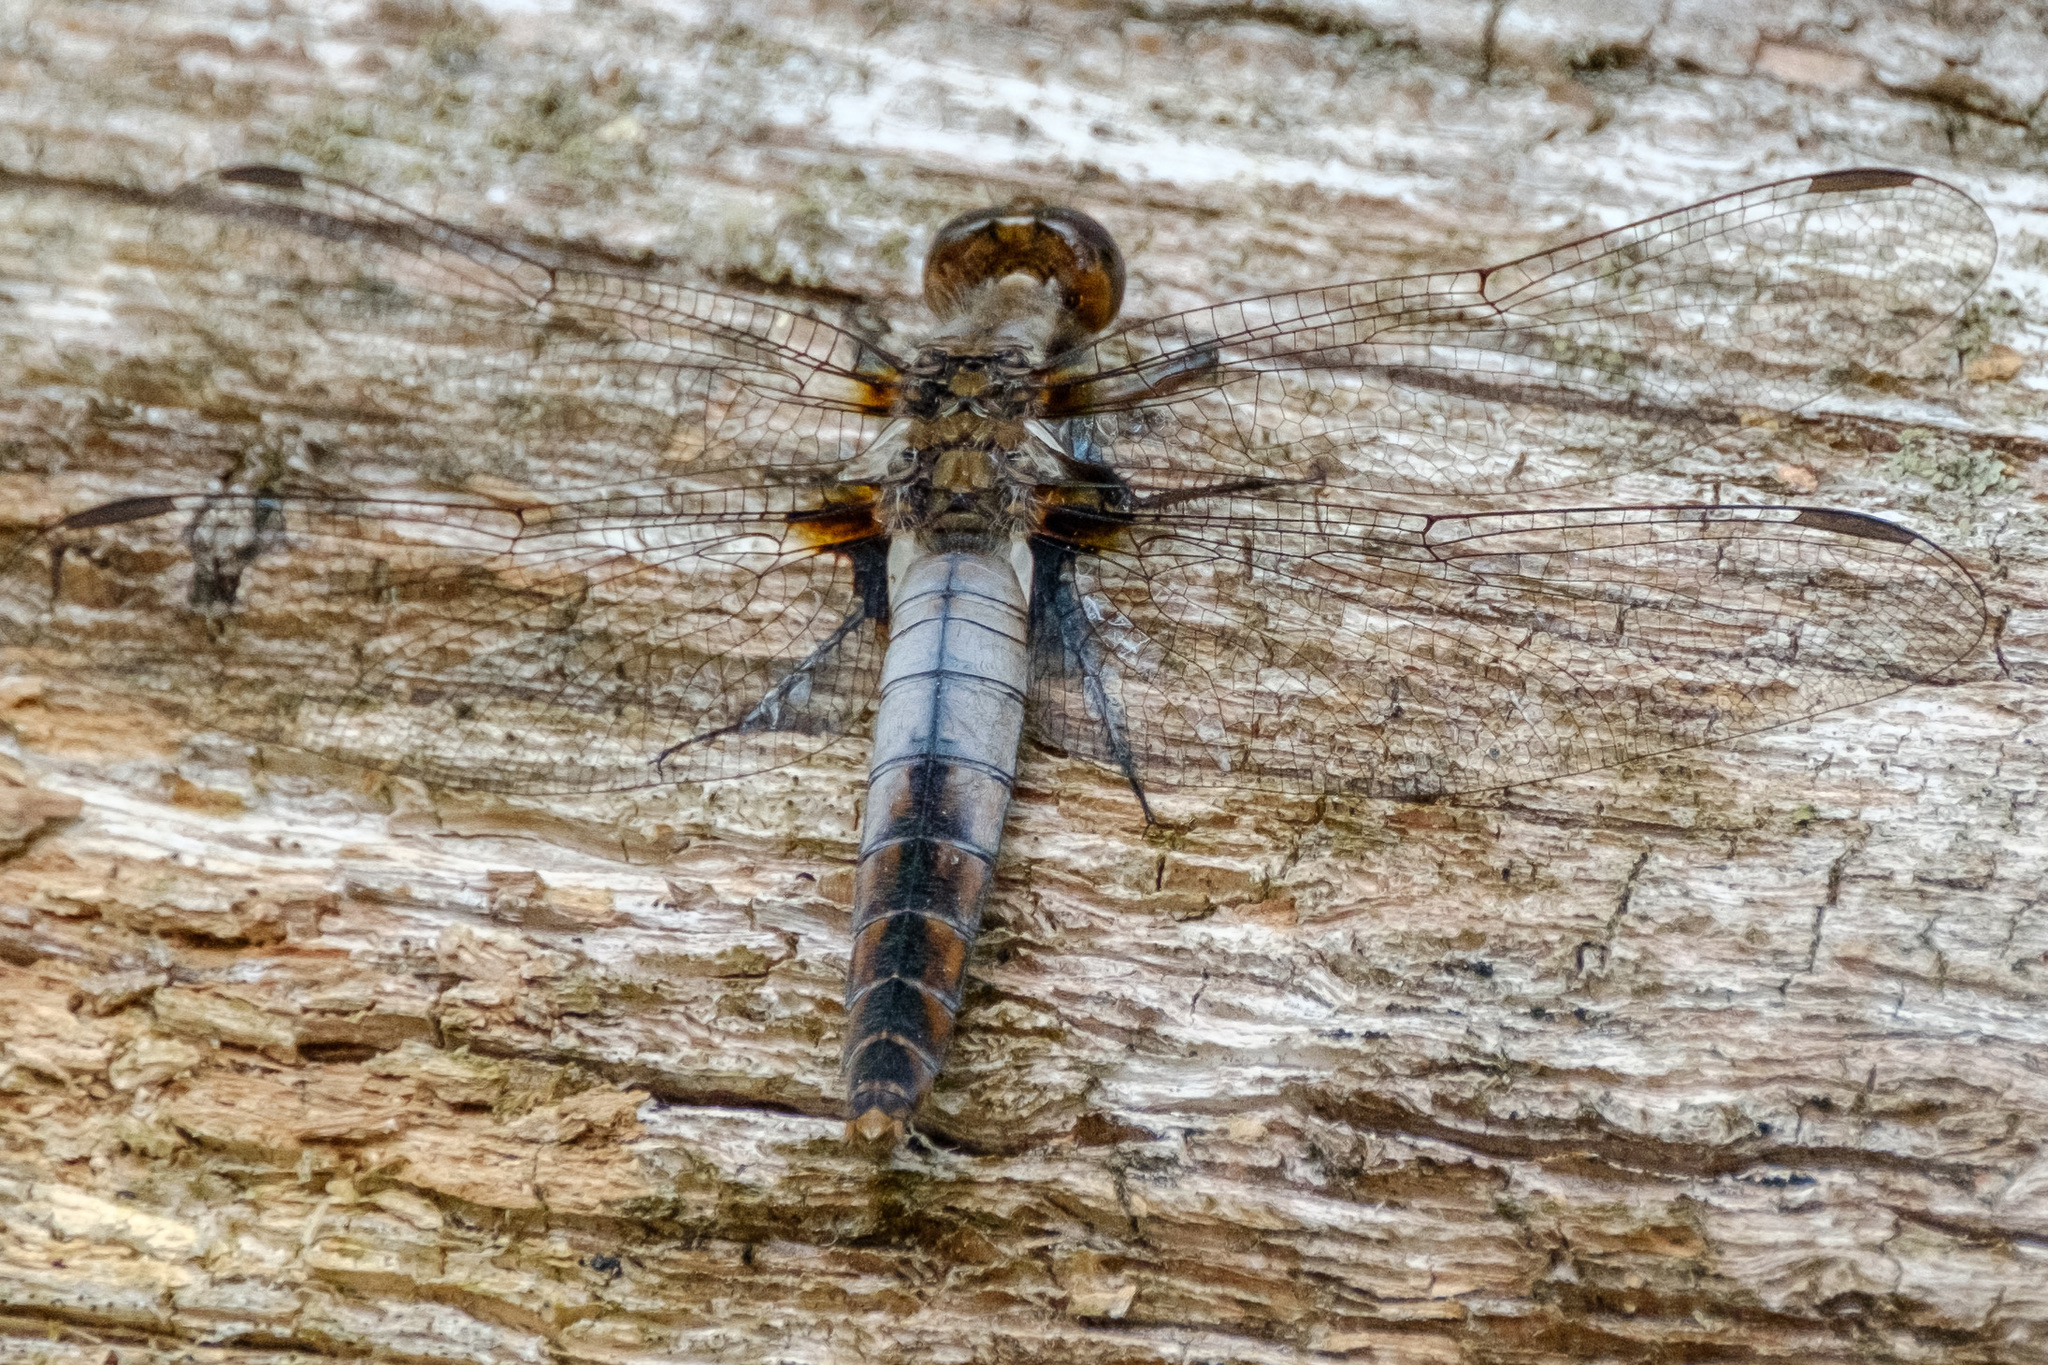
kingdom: Animalia
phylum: Arthropoda
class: Insecta
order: Odonata
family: Libellulidae
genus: Ladona
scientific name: Ladona julia
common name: Chalk-fronted corporal
